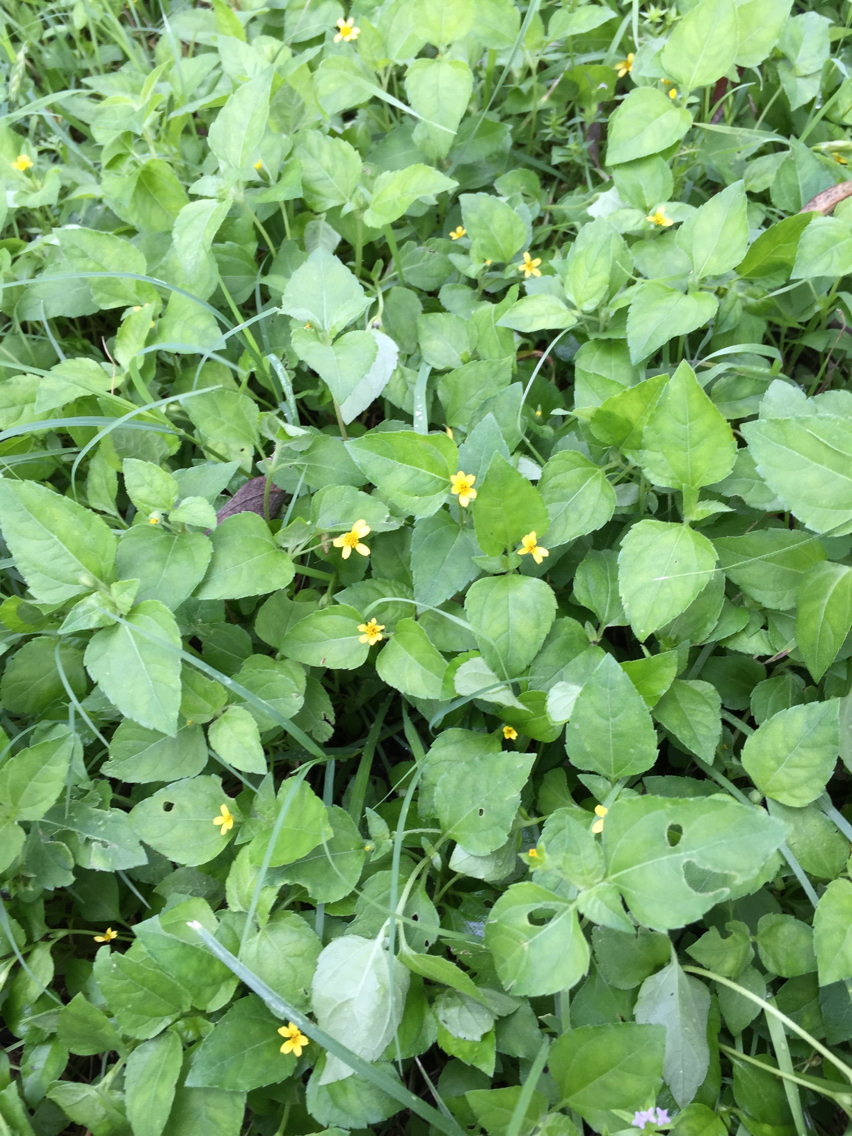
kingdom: Plantae
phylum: Tracheophyta
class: Magnoliopsida
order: Asterales
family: Asteraceae
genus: Calyptocarpus
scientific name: Calyptocarpus vialis
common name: Straggler daisy
